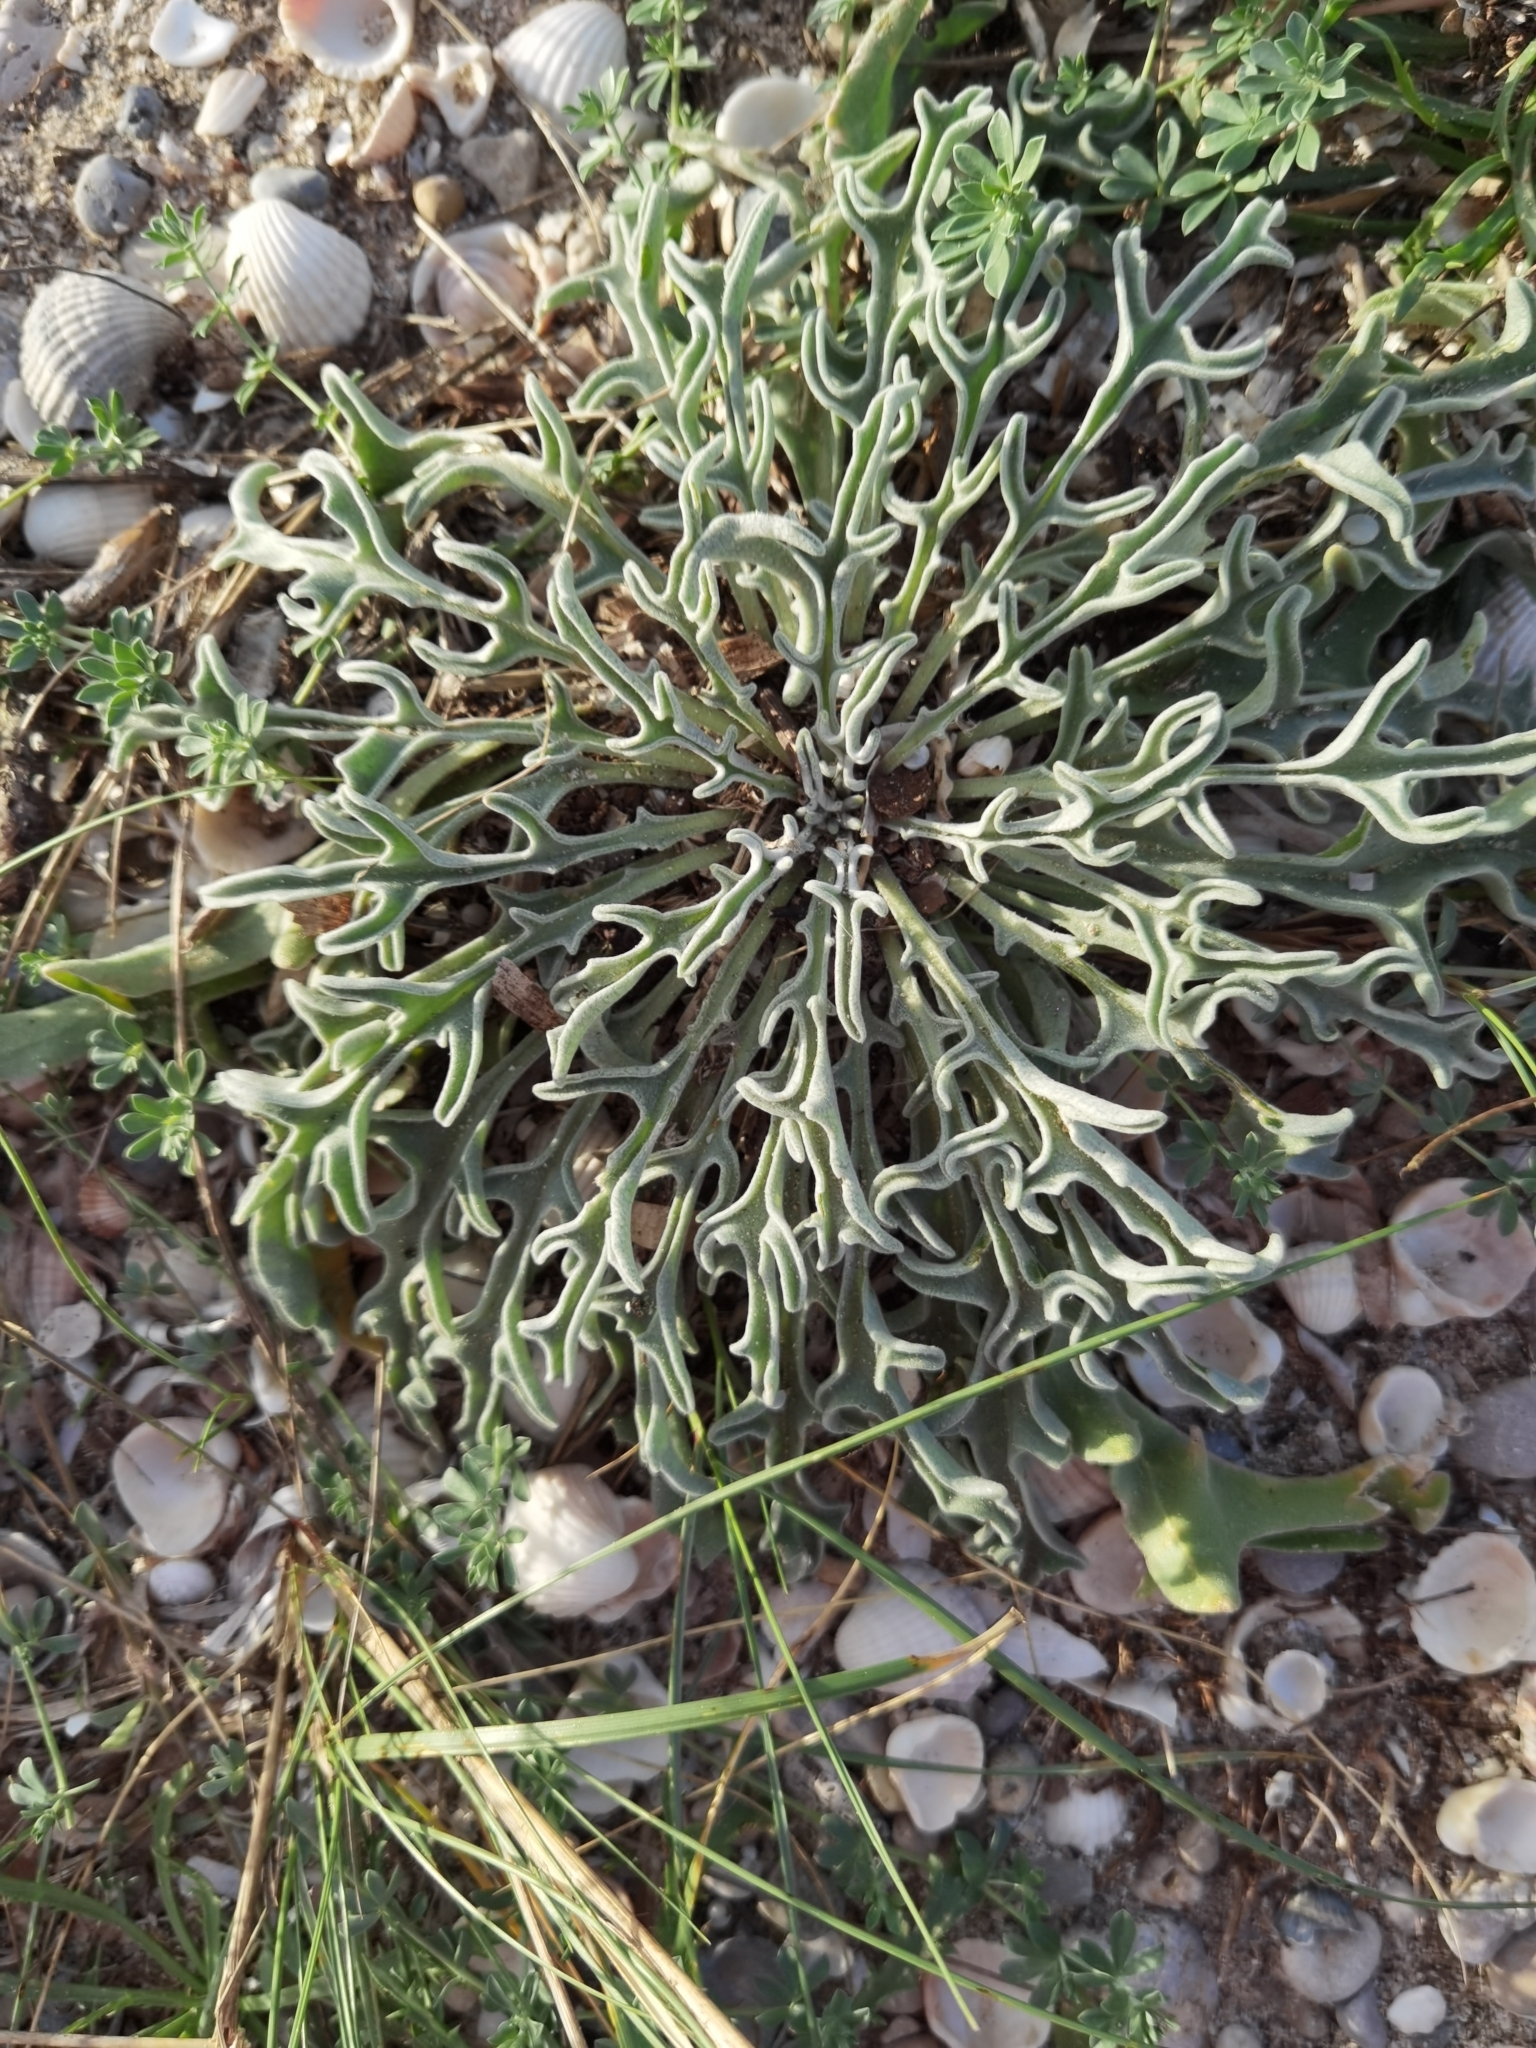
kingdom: Plantae
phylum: Tracheophyta
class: Magnoliopsida
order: Brassicales
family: Brassicaceae
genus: Matthiola
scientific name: Matthiola sinuata
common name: Sea stock
